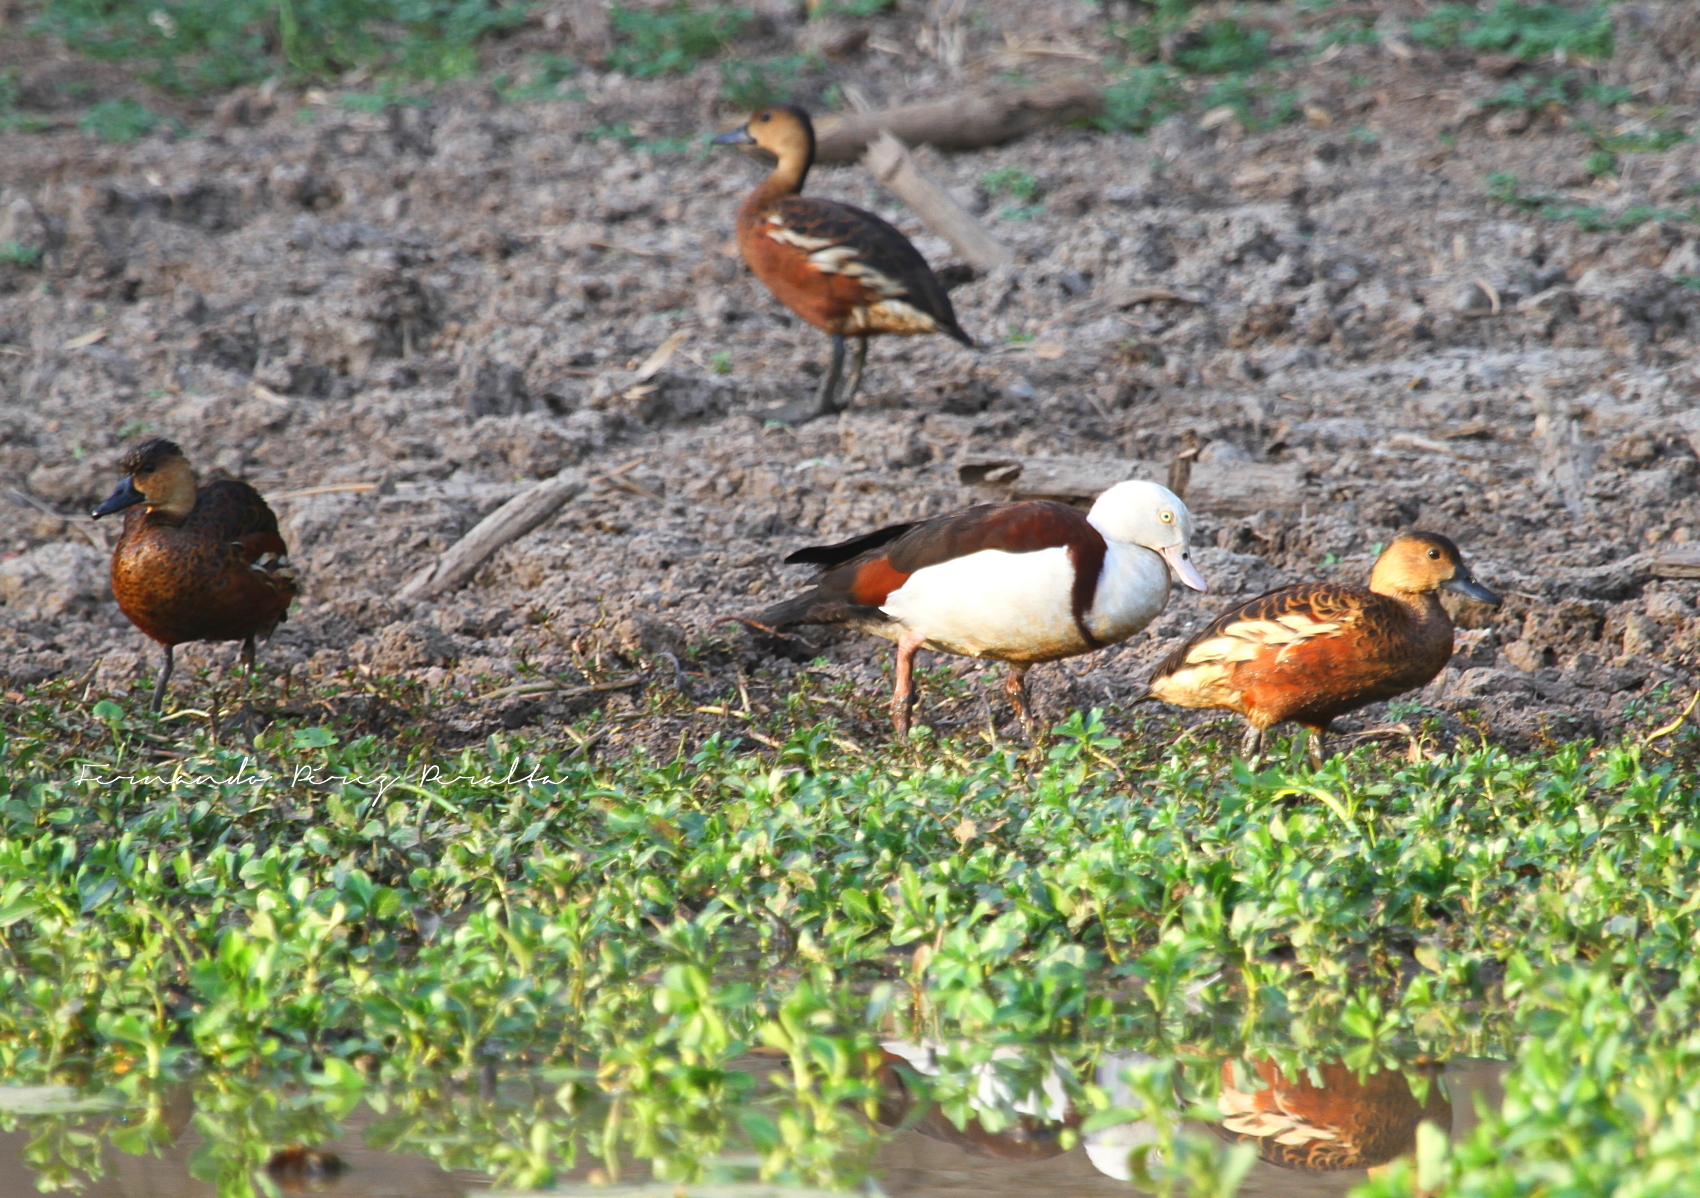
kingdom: Animalia
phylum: Chordata
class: Aves
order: Anseriformes
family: Anatidae
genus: Radjah
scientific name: Radjah radjah
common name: Radjah shelduck
